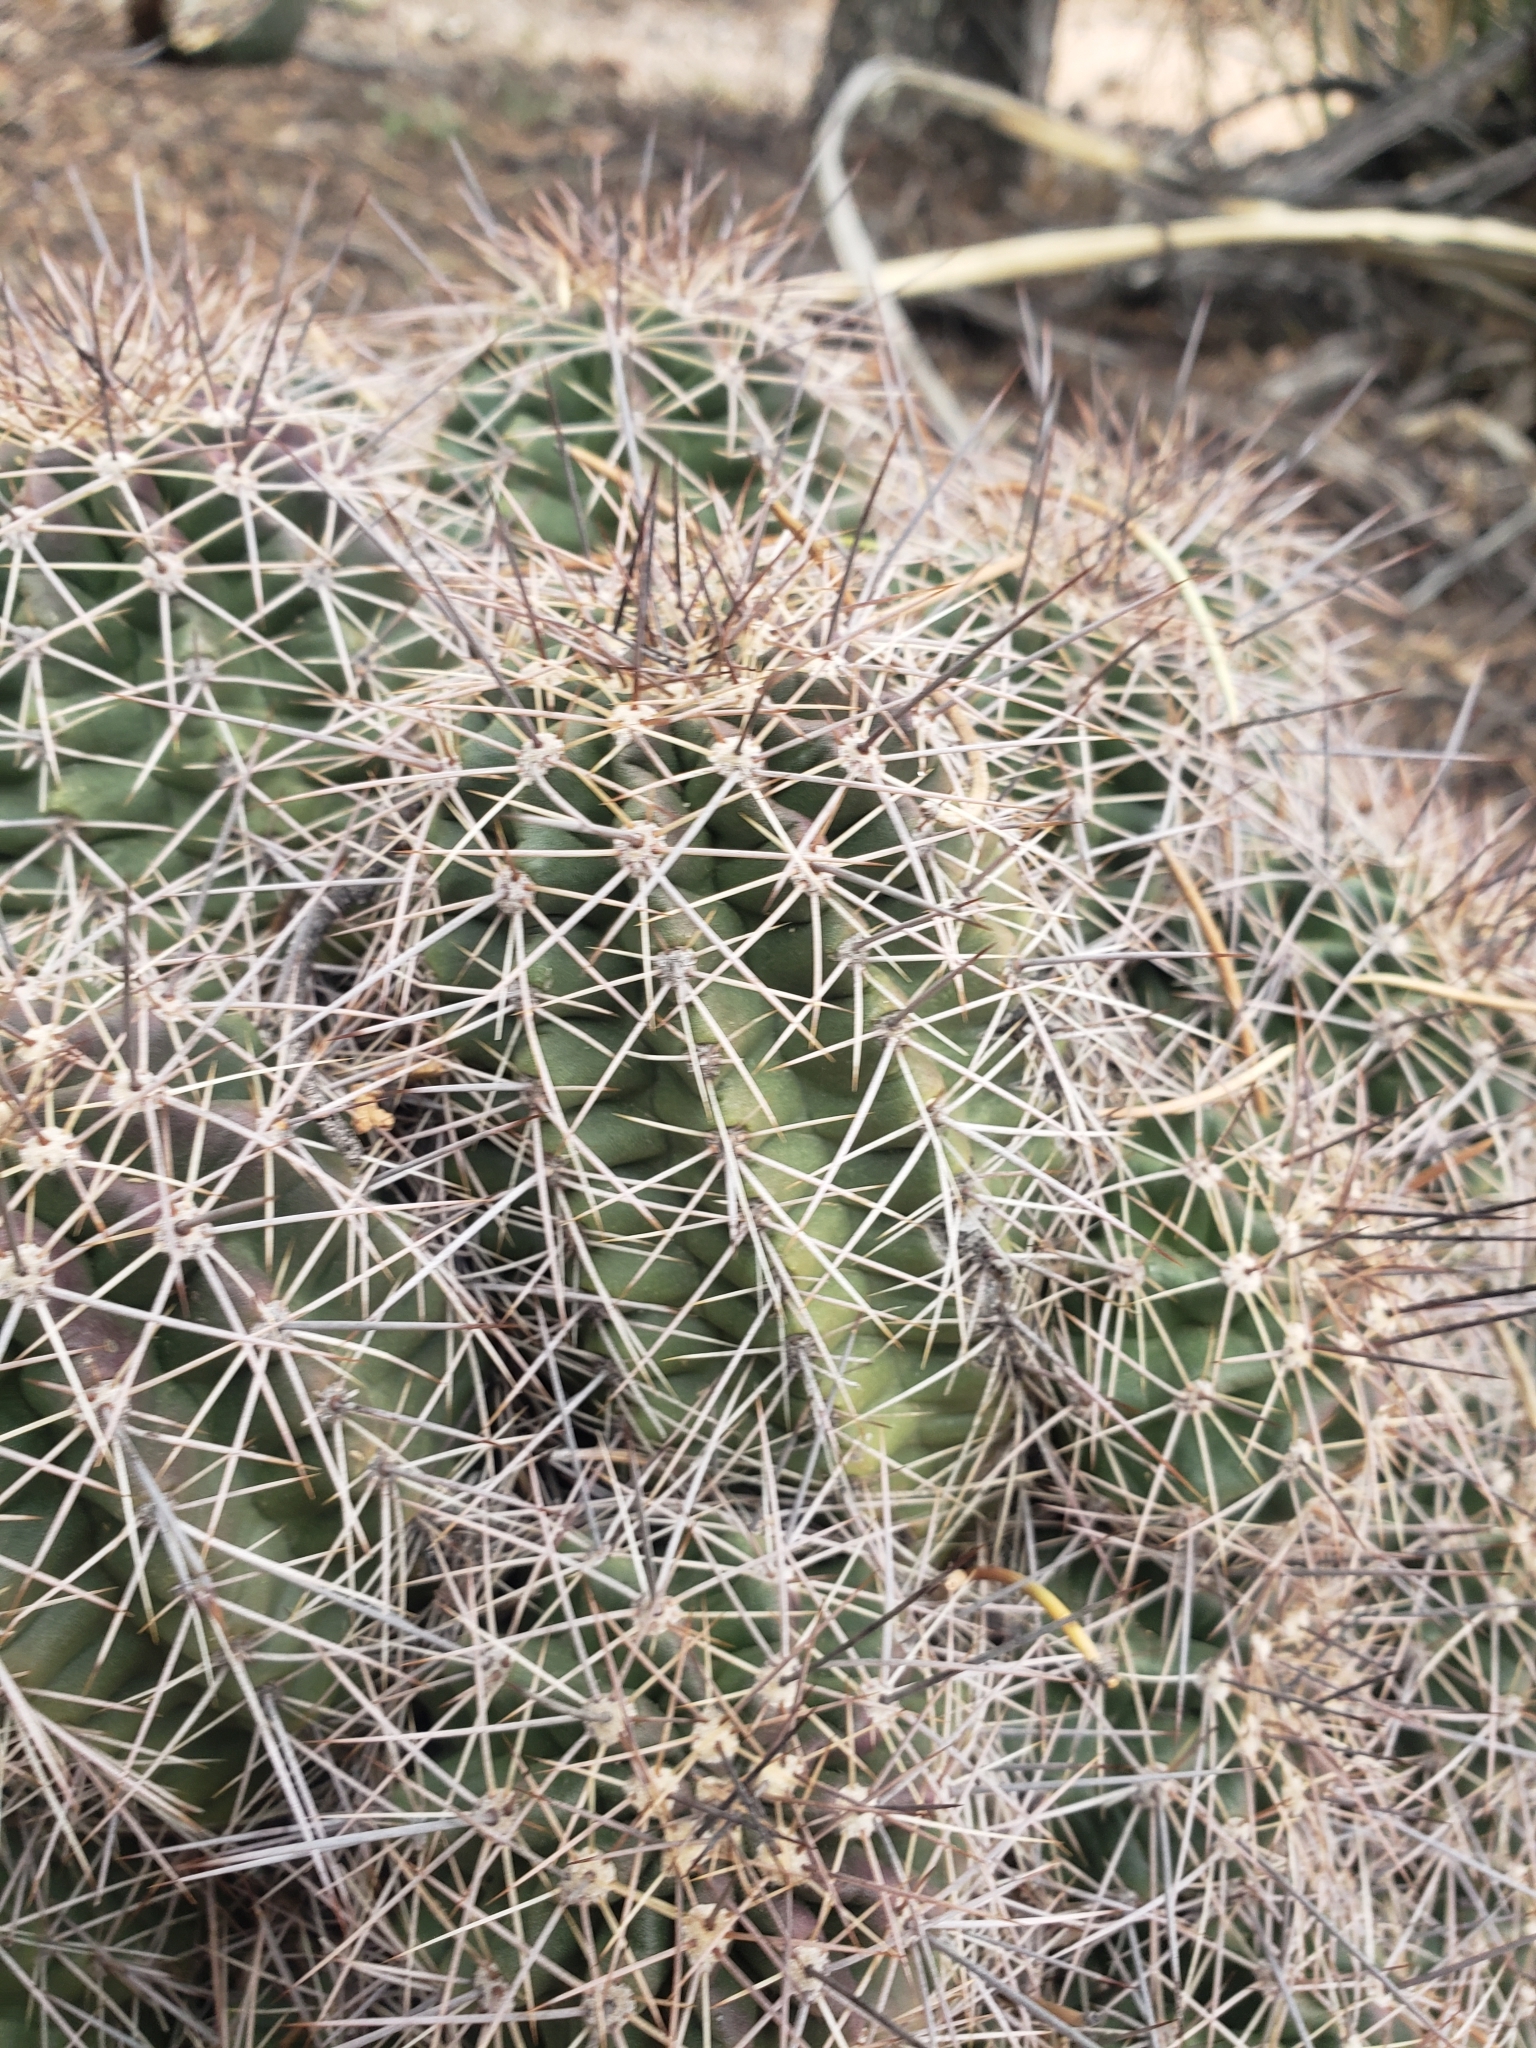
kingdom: Plantae
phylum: Tracheophyta
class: Magnoliopsida
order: Caryophyllales
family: Cactaceae
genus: Echinocereus
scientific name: Echinocereus bakeri
